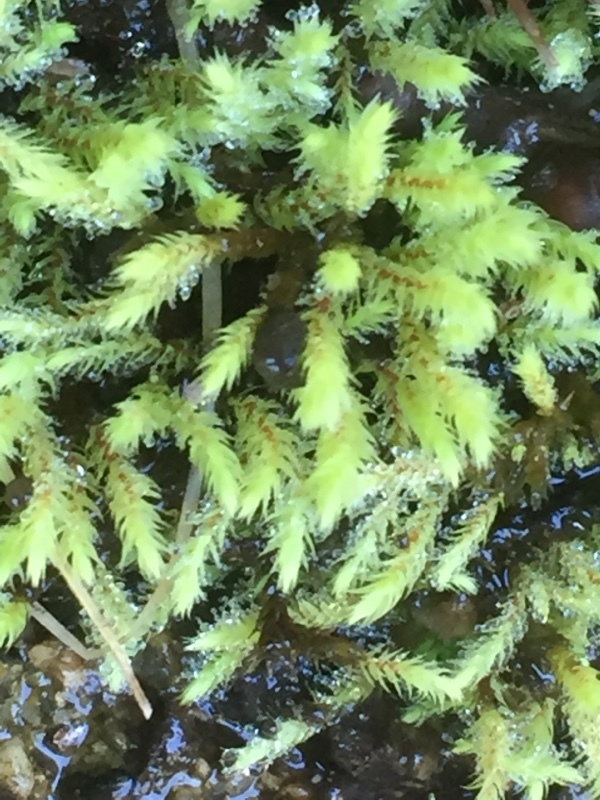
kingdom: Plantae
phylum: Bryophyta
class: Bryopsida
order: Bartramiales
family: Bartramiaceae
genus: Philonotis
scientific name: Philonotis fontana
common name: Fountain apple-moss
